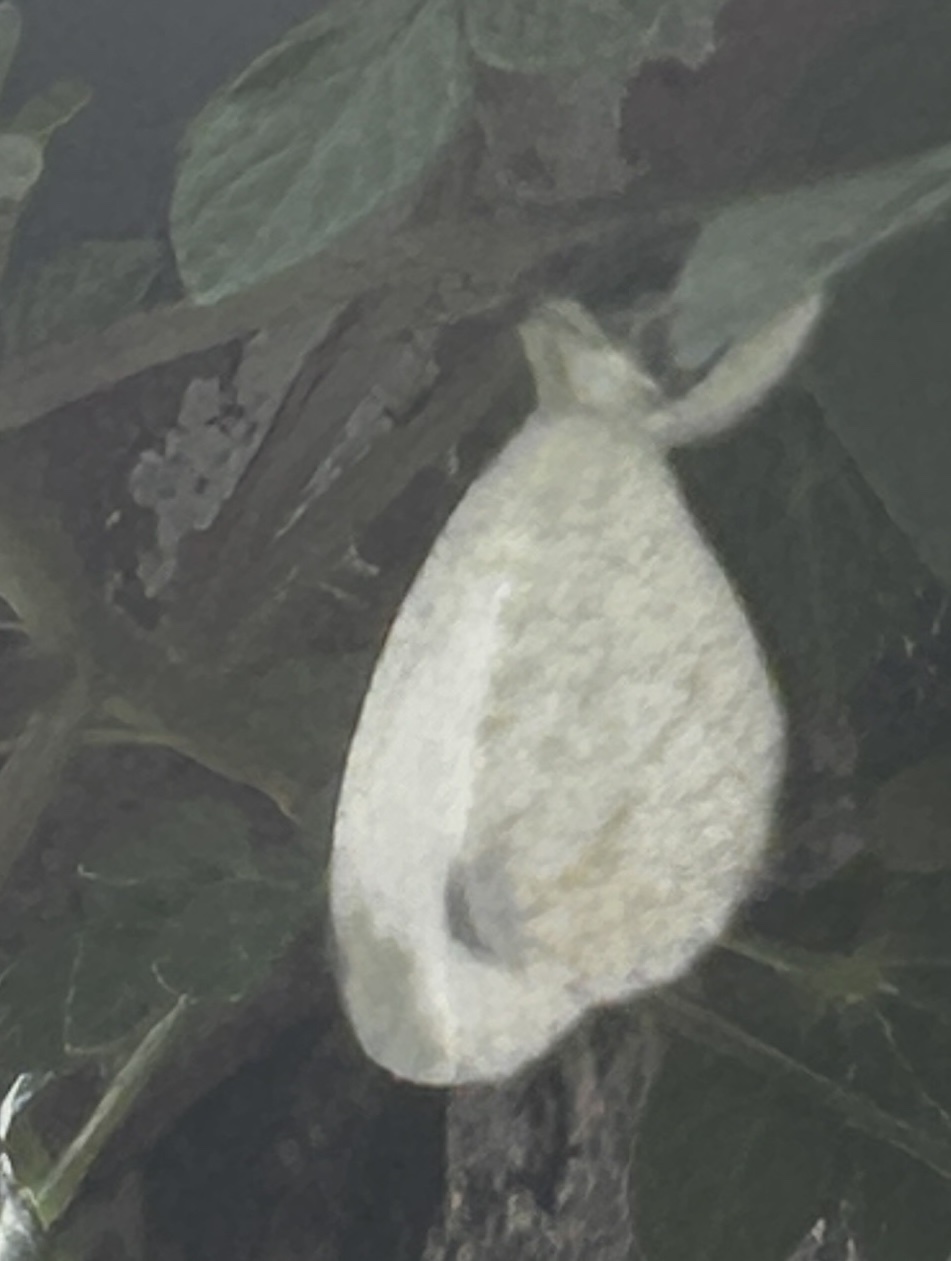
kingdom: Animalia
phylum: Arthropoda
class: Insecta
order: Lepidoptera
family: Pieridae
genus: Leptosia
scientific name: Leptosia nina
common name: Psyche
